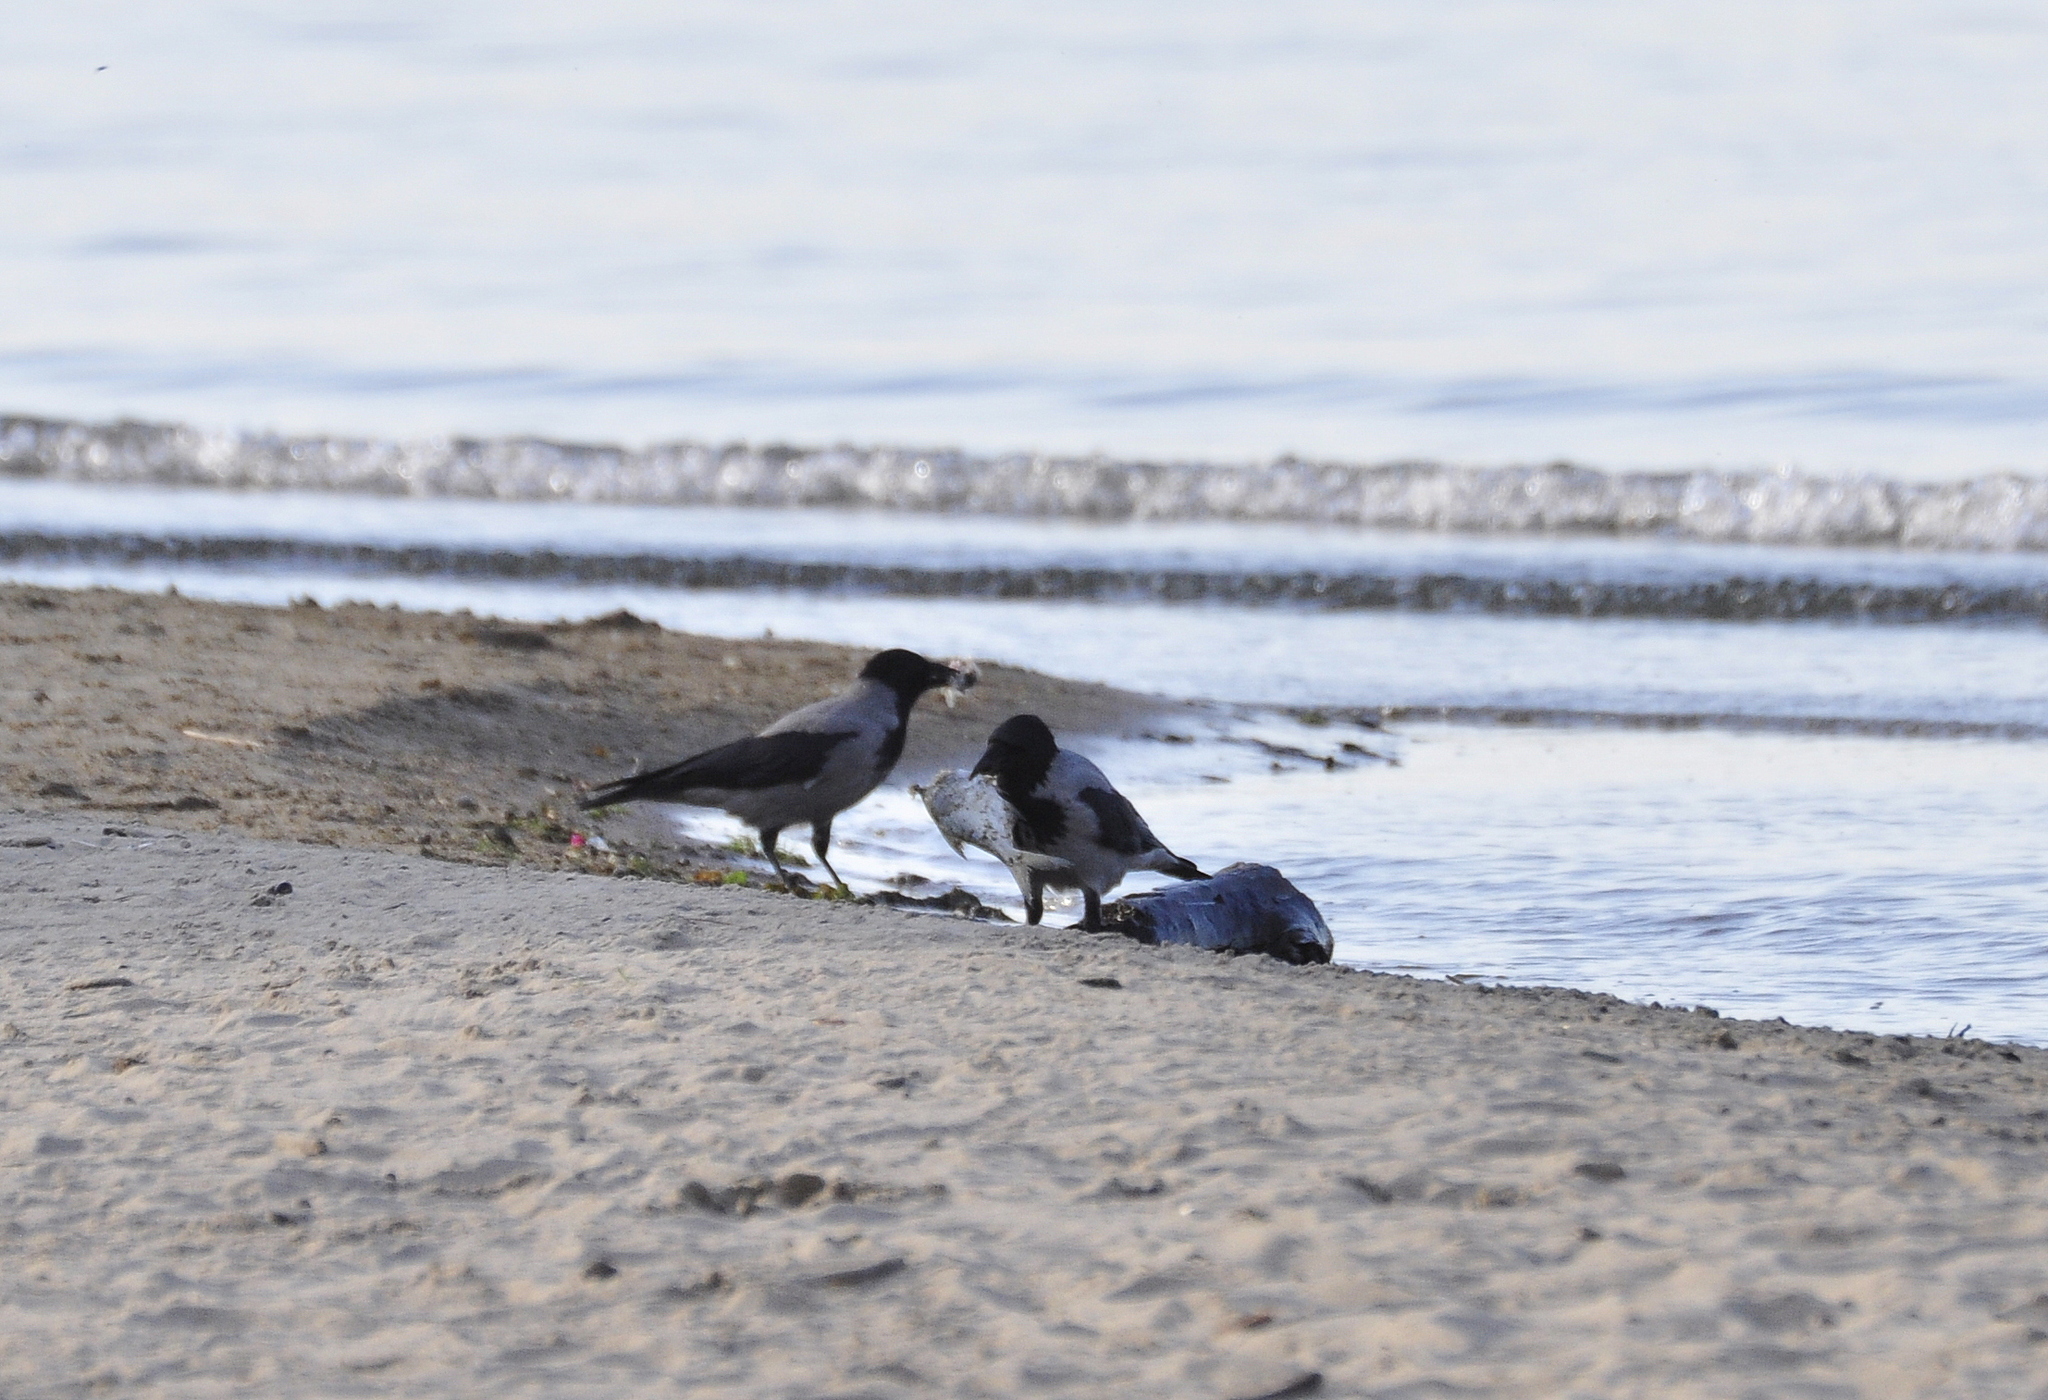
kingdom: Animalia
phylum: Chordata
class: Aves
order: Passeriformes
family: Corvidae
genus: Corvus
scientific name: Corvus cornix
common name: Hooded crow
